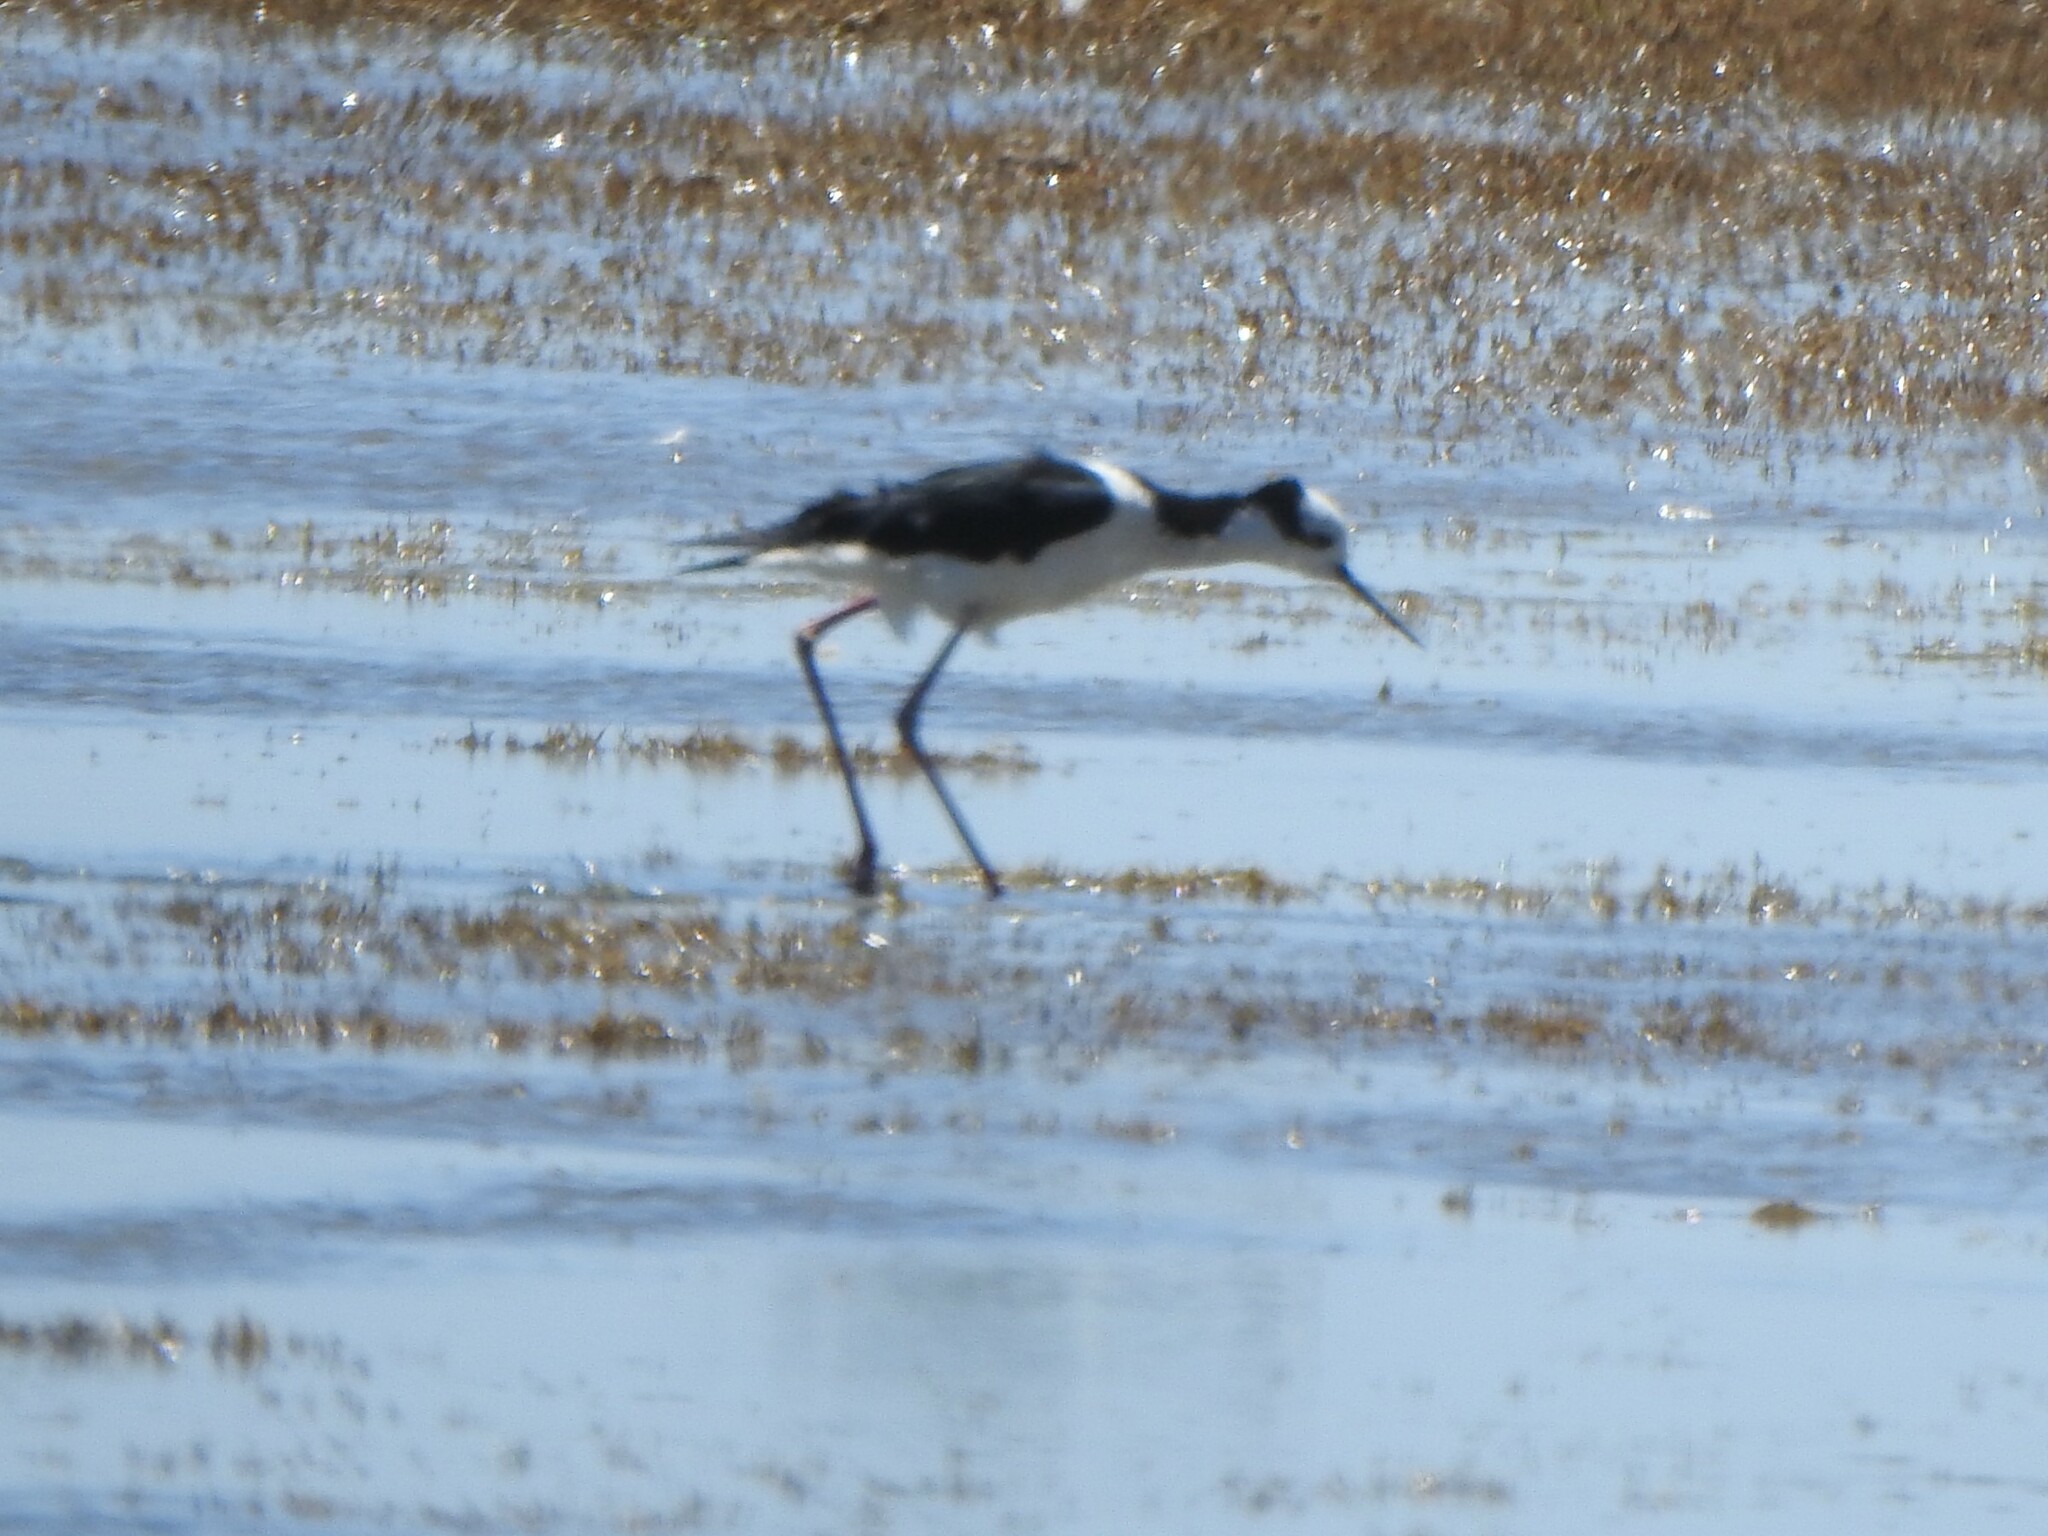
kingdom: Animalia
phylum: Chordata
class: Aves
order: Charadriiformes
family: Recurvirostridae
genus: Himantopus
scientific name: Himantopus mexicanus
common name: Black-necked stilt
